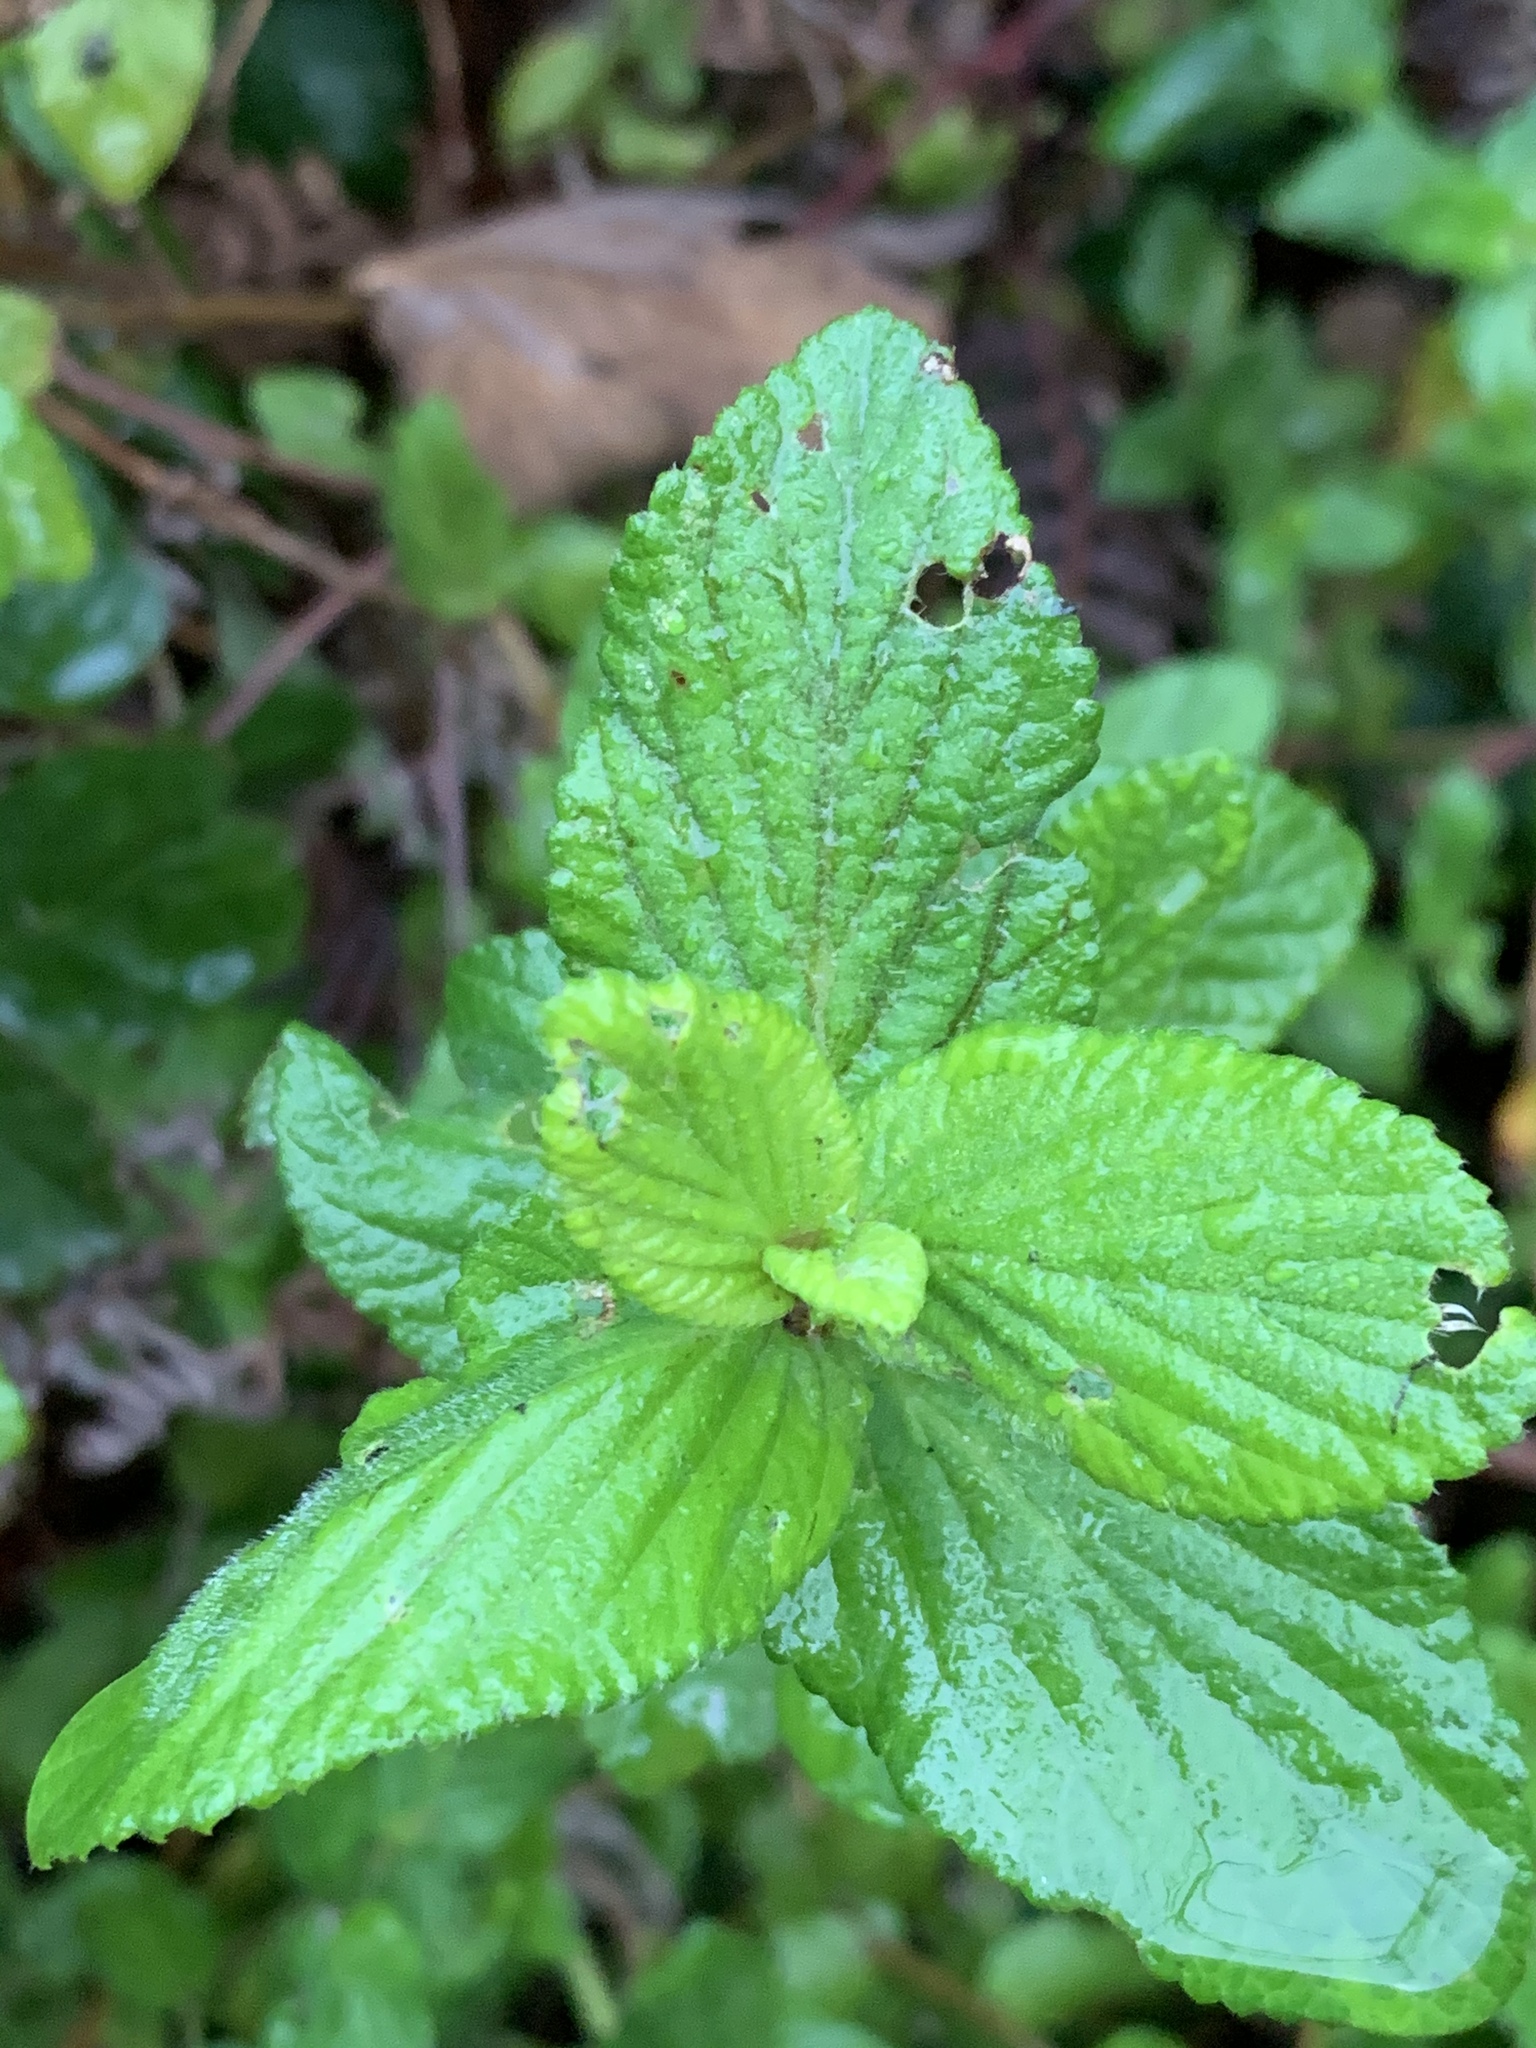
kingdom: Plantae
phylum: Tracheophyta
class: Magnoliopsida
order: Rosales
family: Rosaceae
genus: Cliffortia
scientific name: Cliffortia odorata
